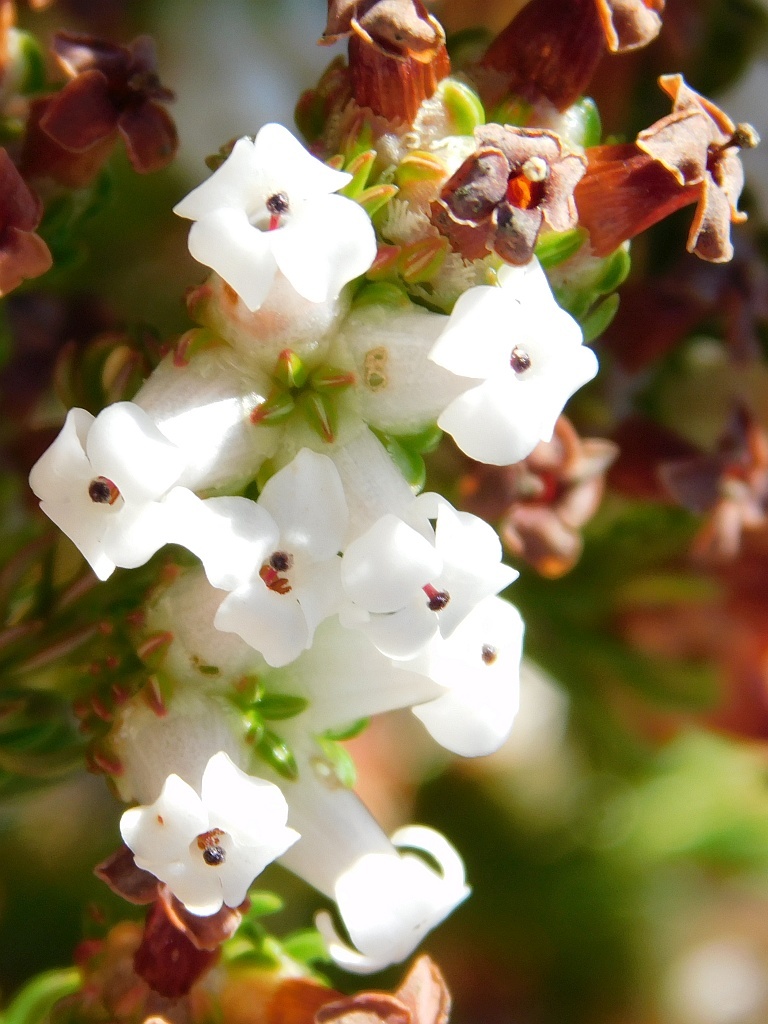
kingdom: Plantae
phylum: Tracheophyta
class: Magnoliopsida
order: Ericales
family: Ericaceae
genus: Erica
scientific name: Erica denticulata
